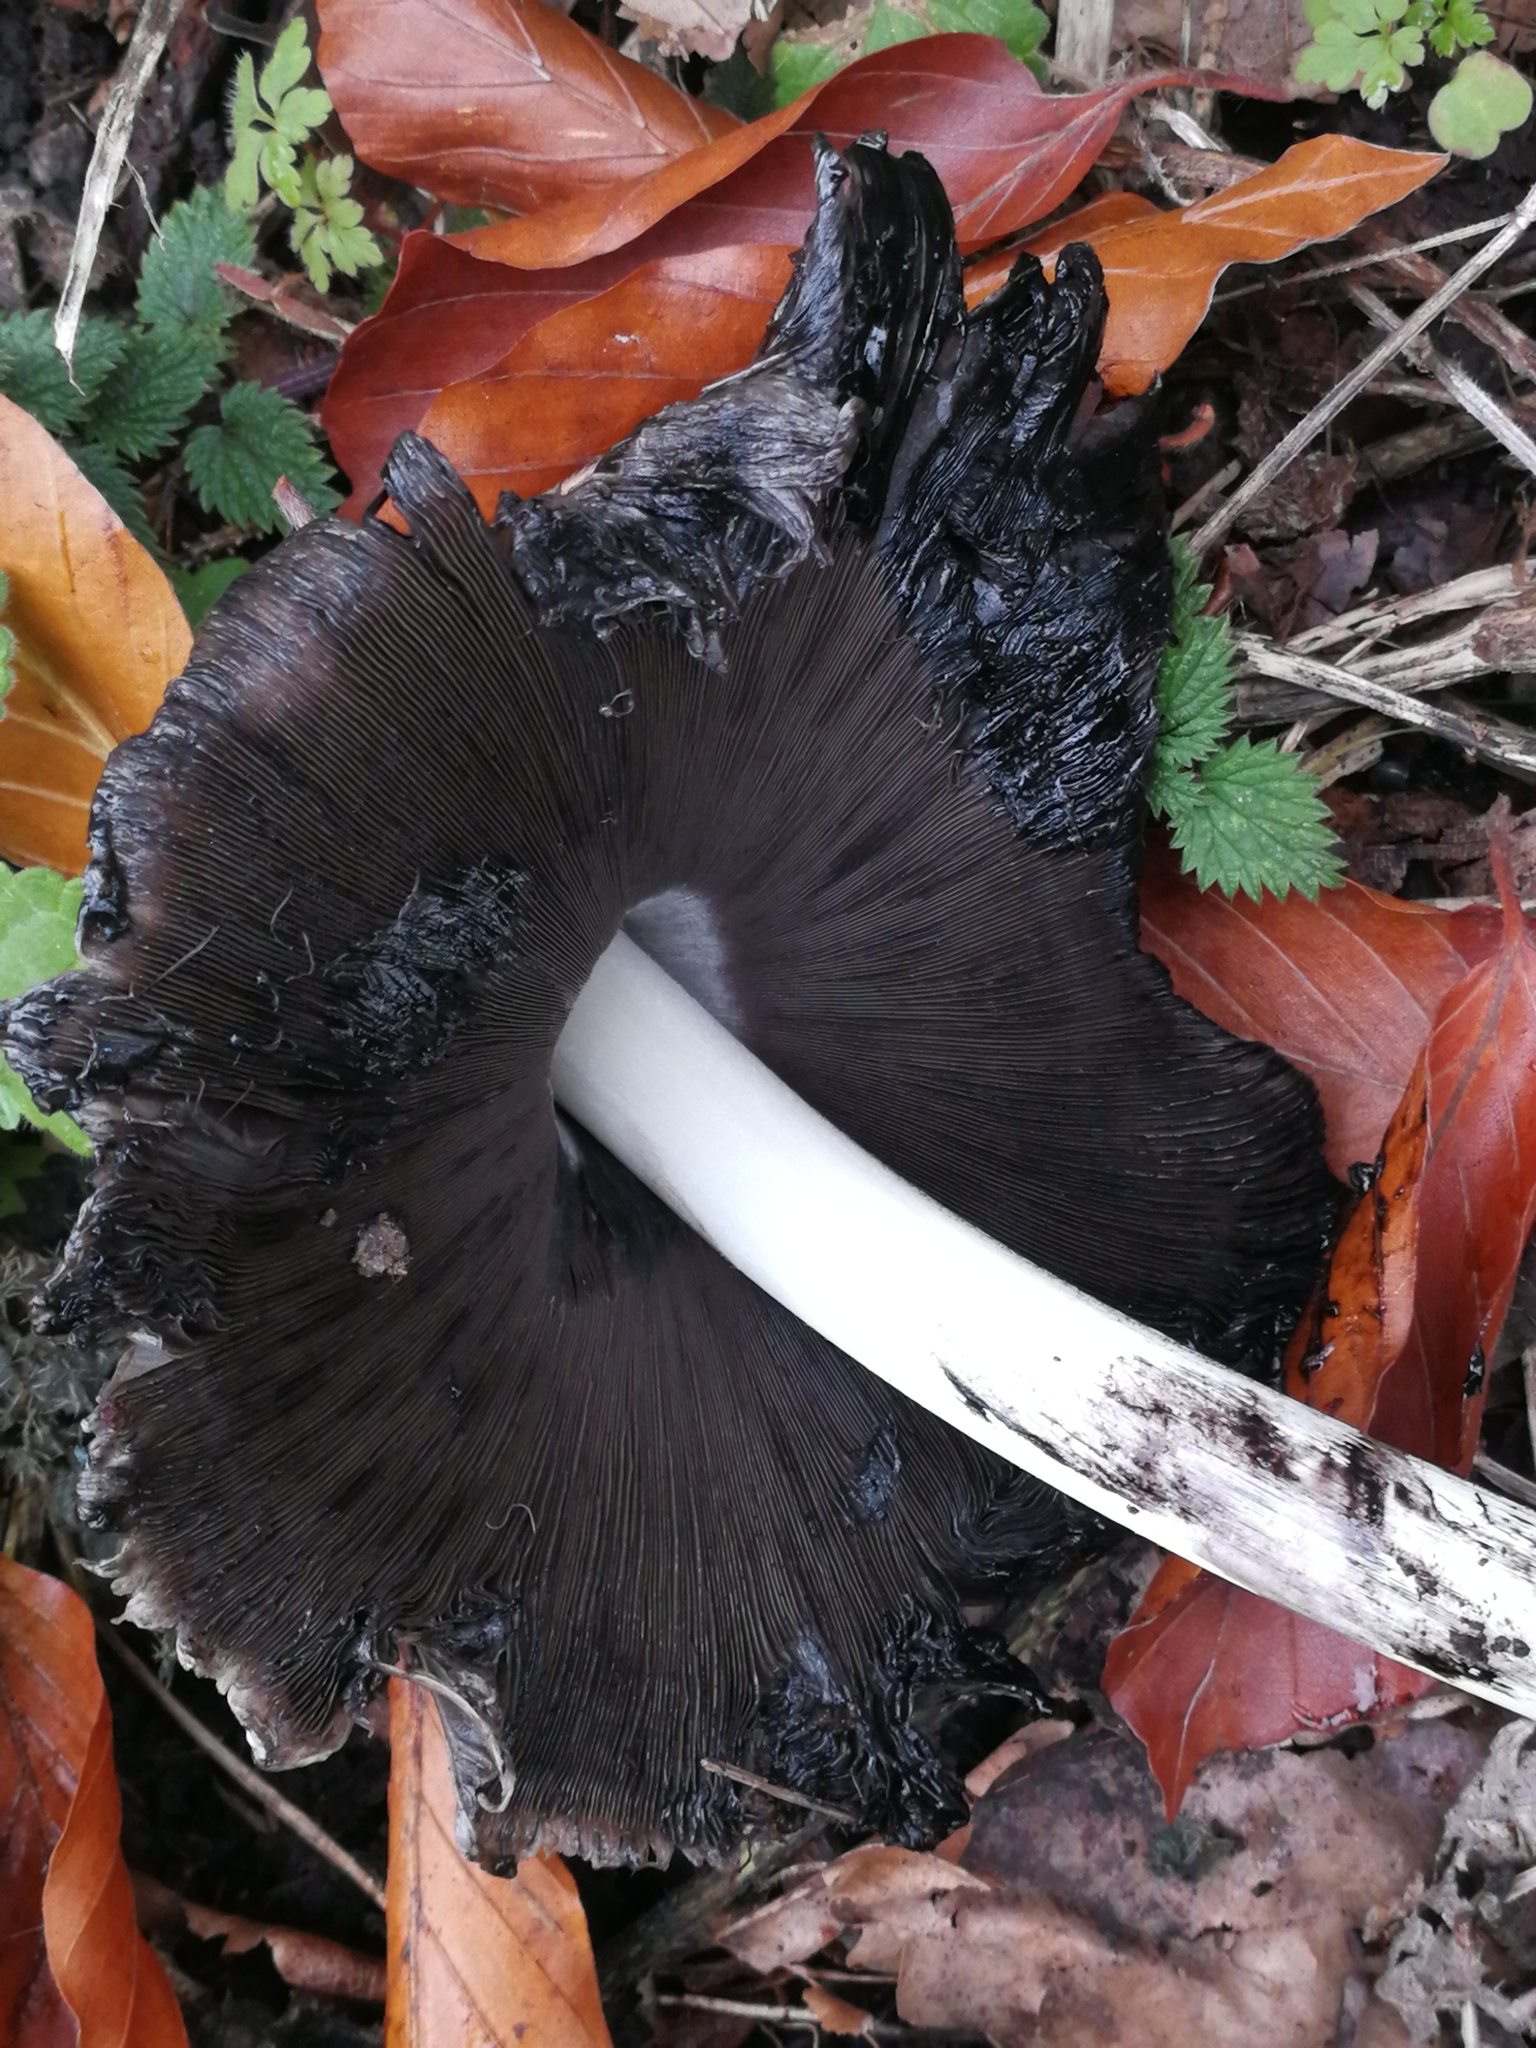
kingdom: Fungi
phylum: Basidiomycota
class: Agaricomycetes
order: Agaricales
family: Psathyrellaceae
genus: Coprinopsis
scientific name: Coprinopsis atramentaria
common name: Common ink-cap
